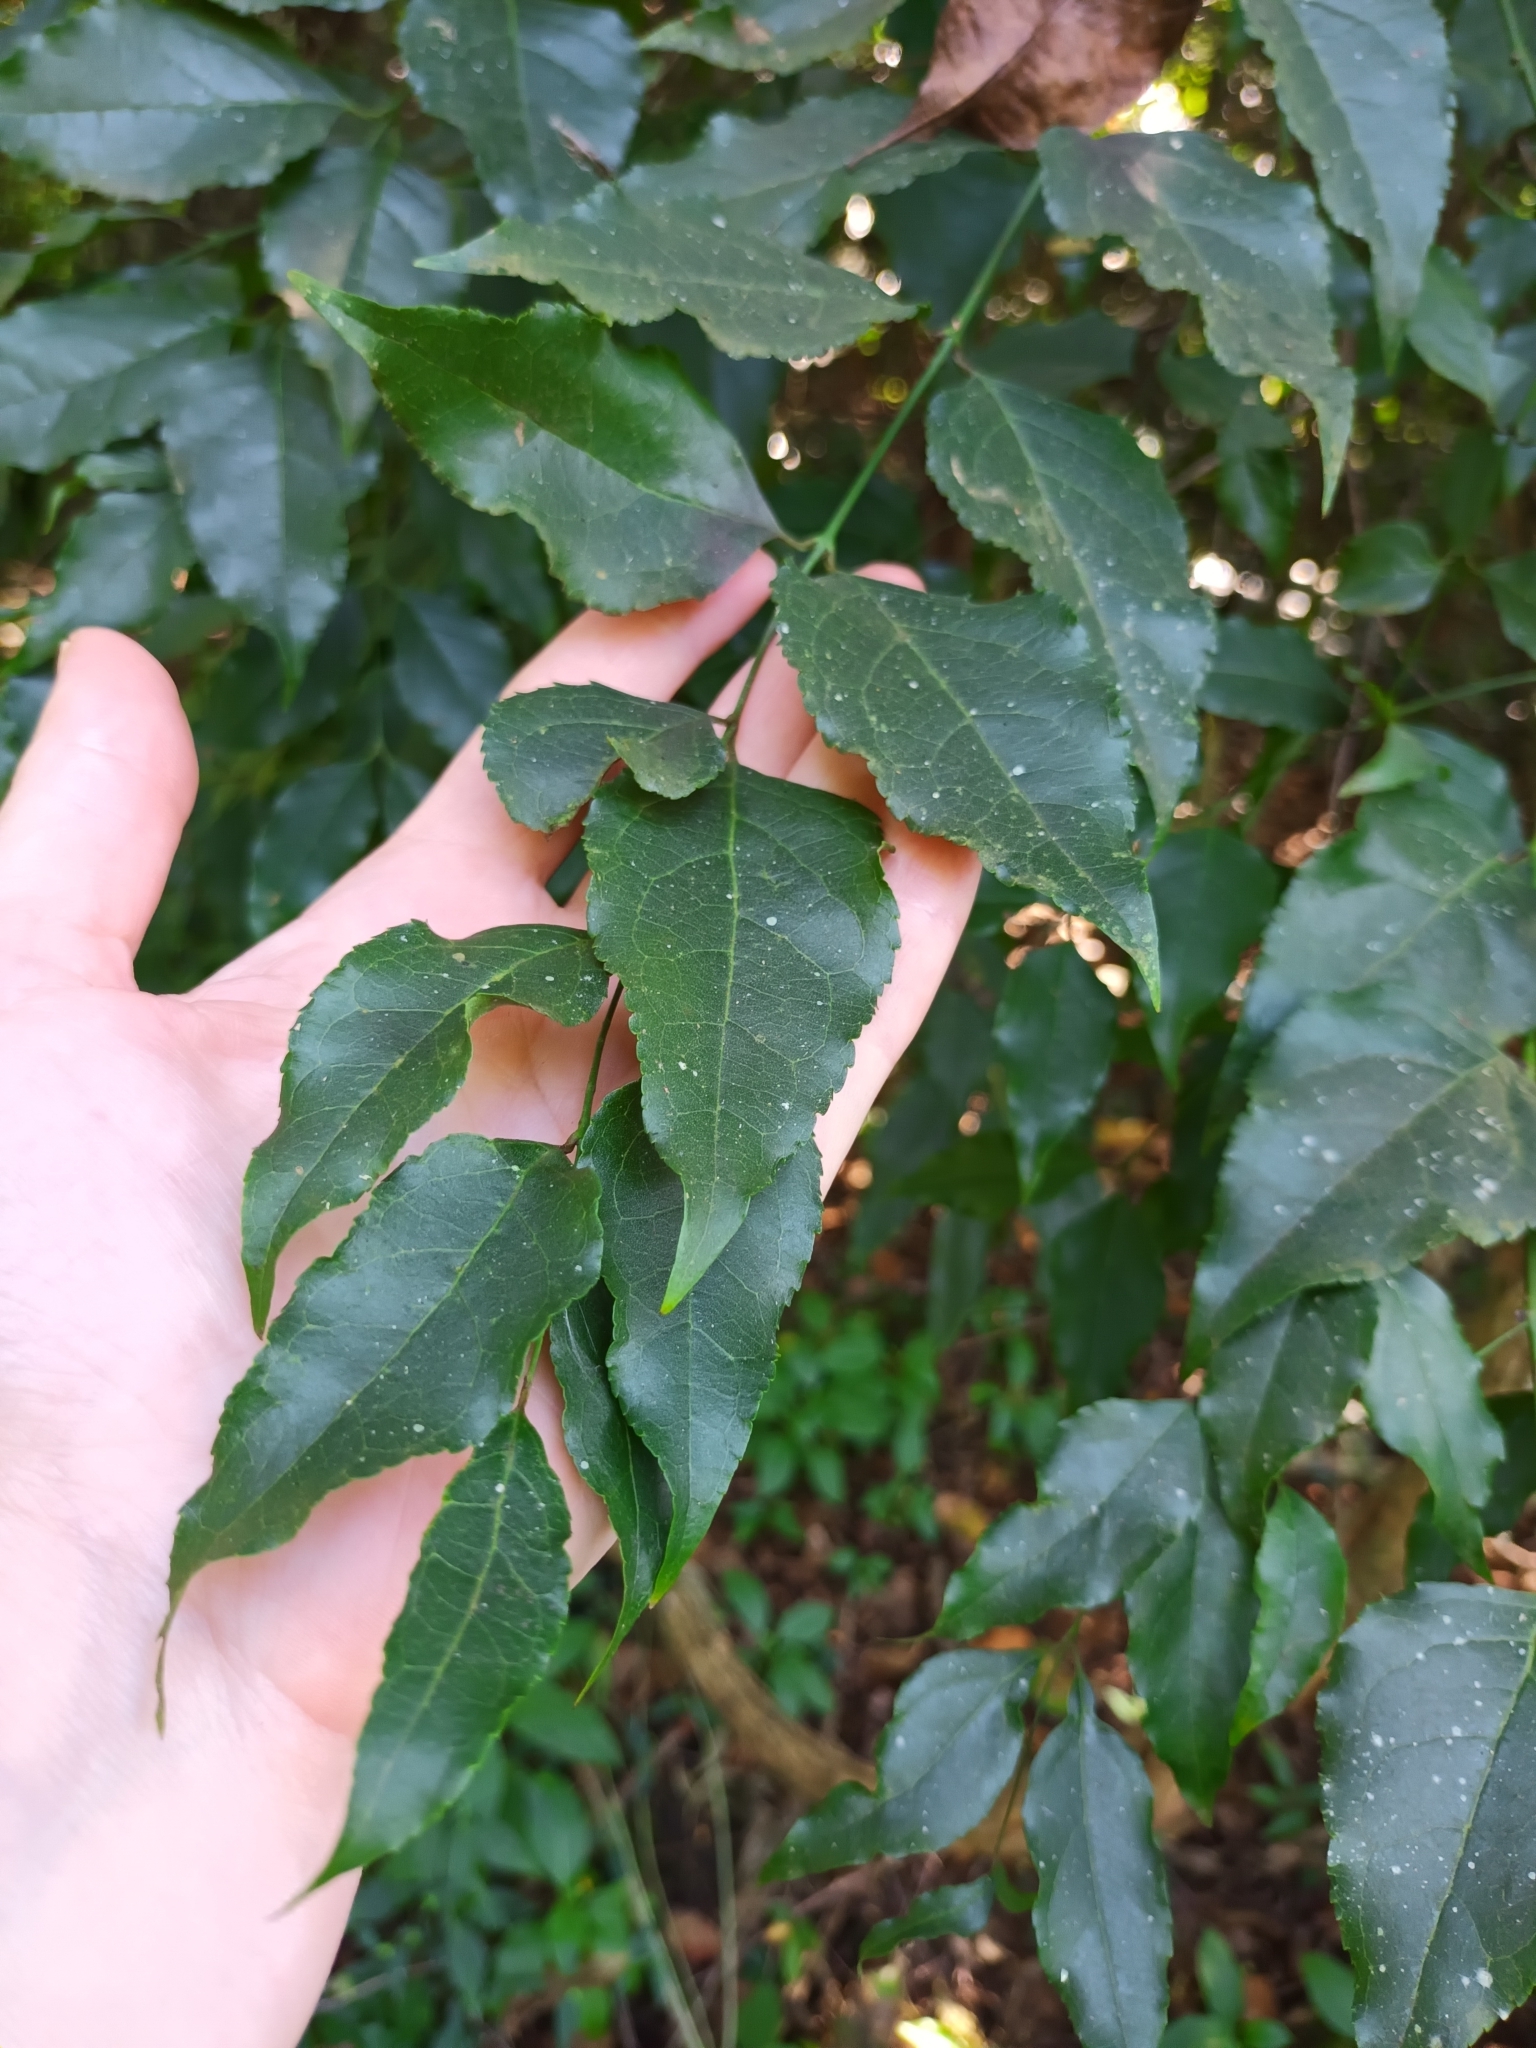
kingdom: Plantae
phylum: Tracheophyta
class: Magnoliopsida
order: Lamiales
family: Stilbaceae
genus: Halleria
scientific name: Halleria lucida
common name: Tree fuschia
